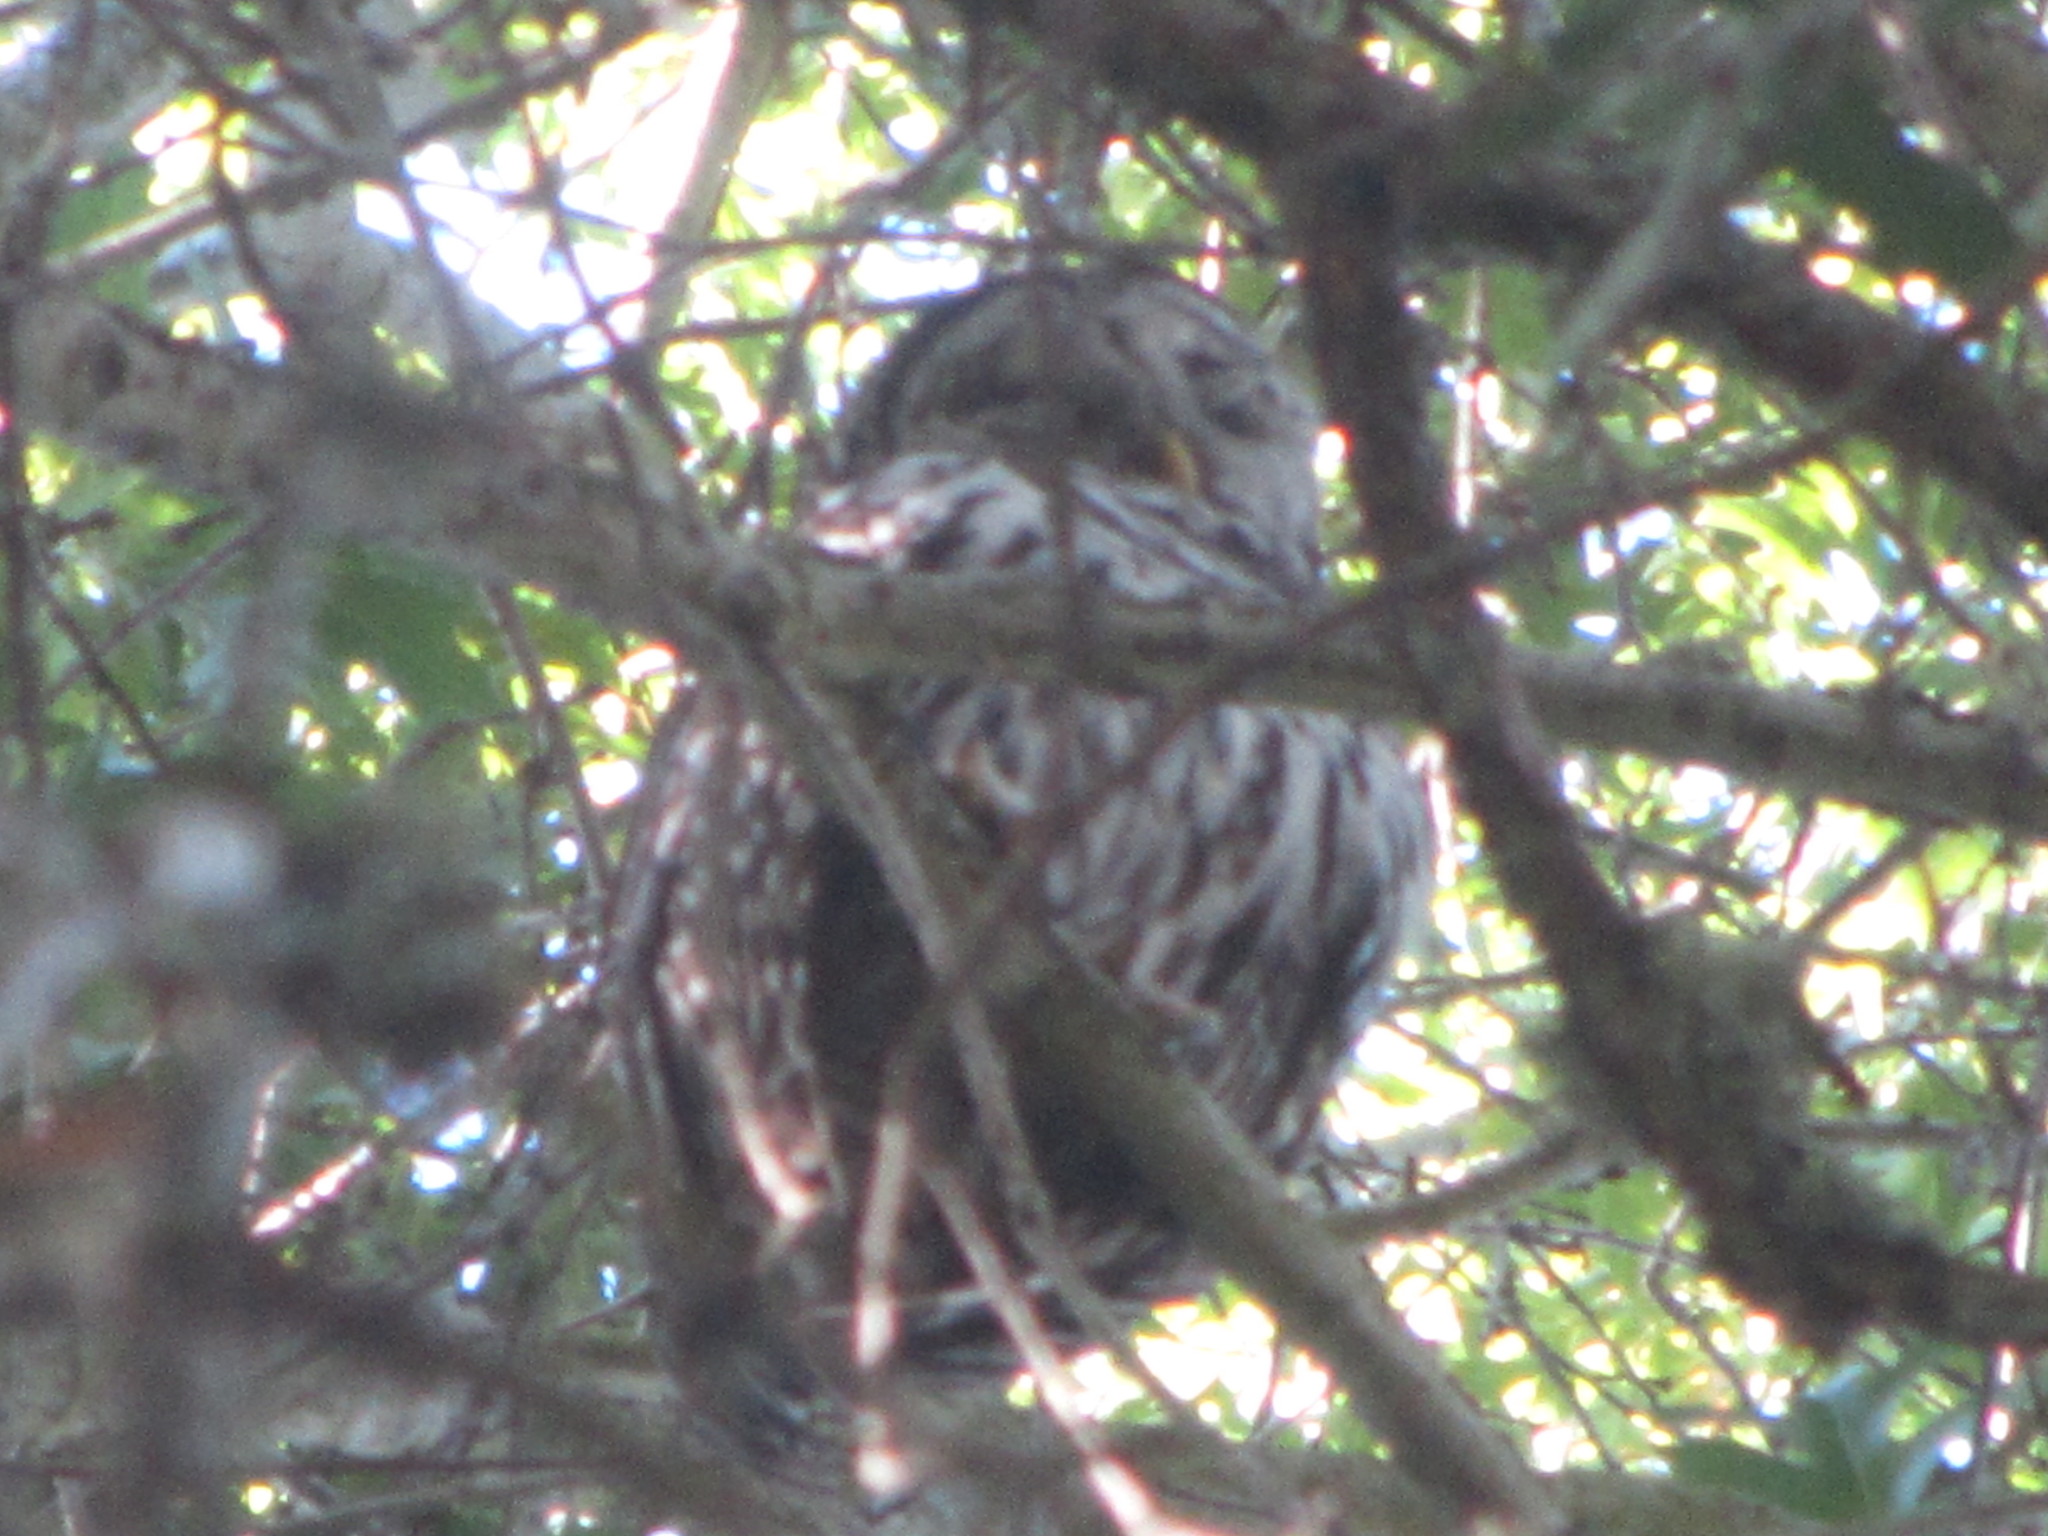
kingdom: Animalia
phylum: Chordata
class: Aves
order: Strigiformes
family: Strigidae
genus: Strix
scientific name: Strix varia
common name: Barred owl
